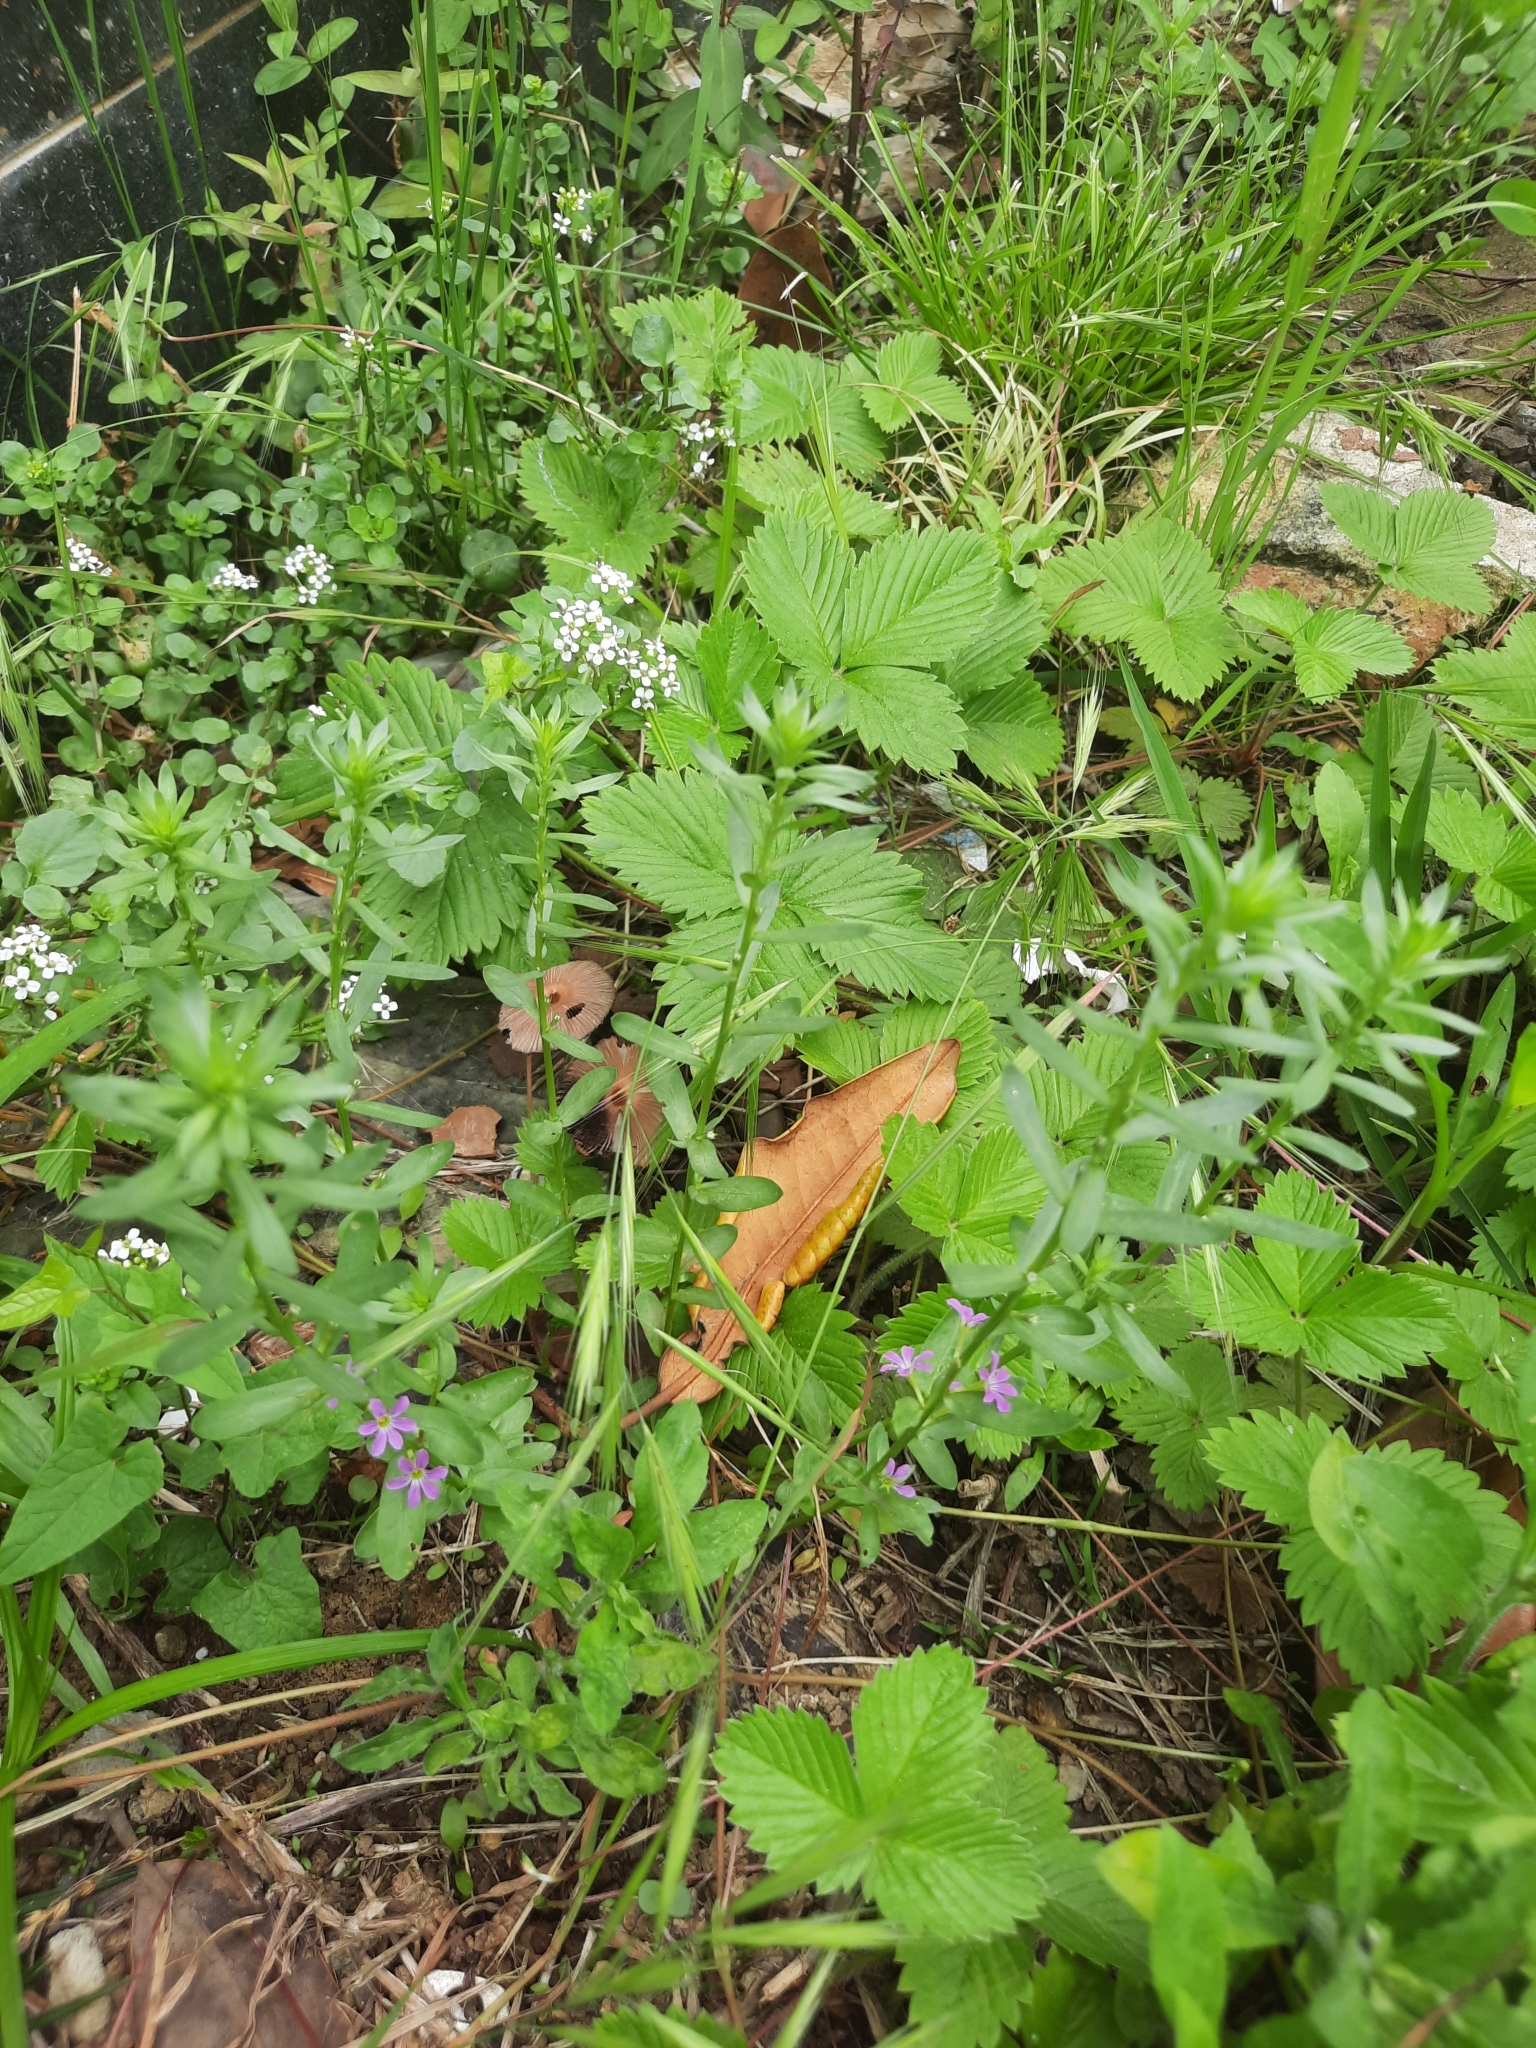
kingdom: Plantae
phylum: Tracheophyta
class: Magnoliopsida
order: Myrtales
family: Lythraceae
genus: Lythrum
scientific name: Lythrum hyssopifolia
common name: Grass-poly
